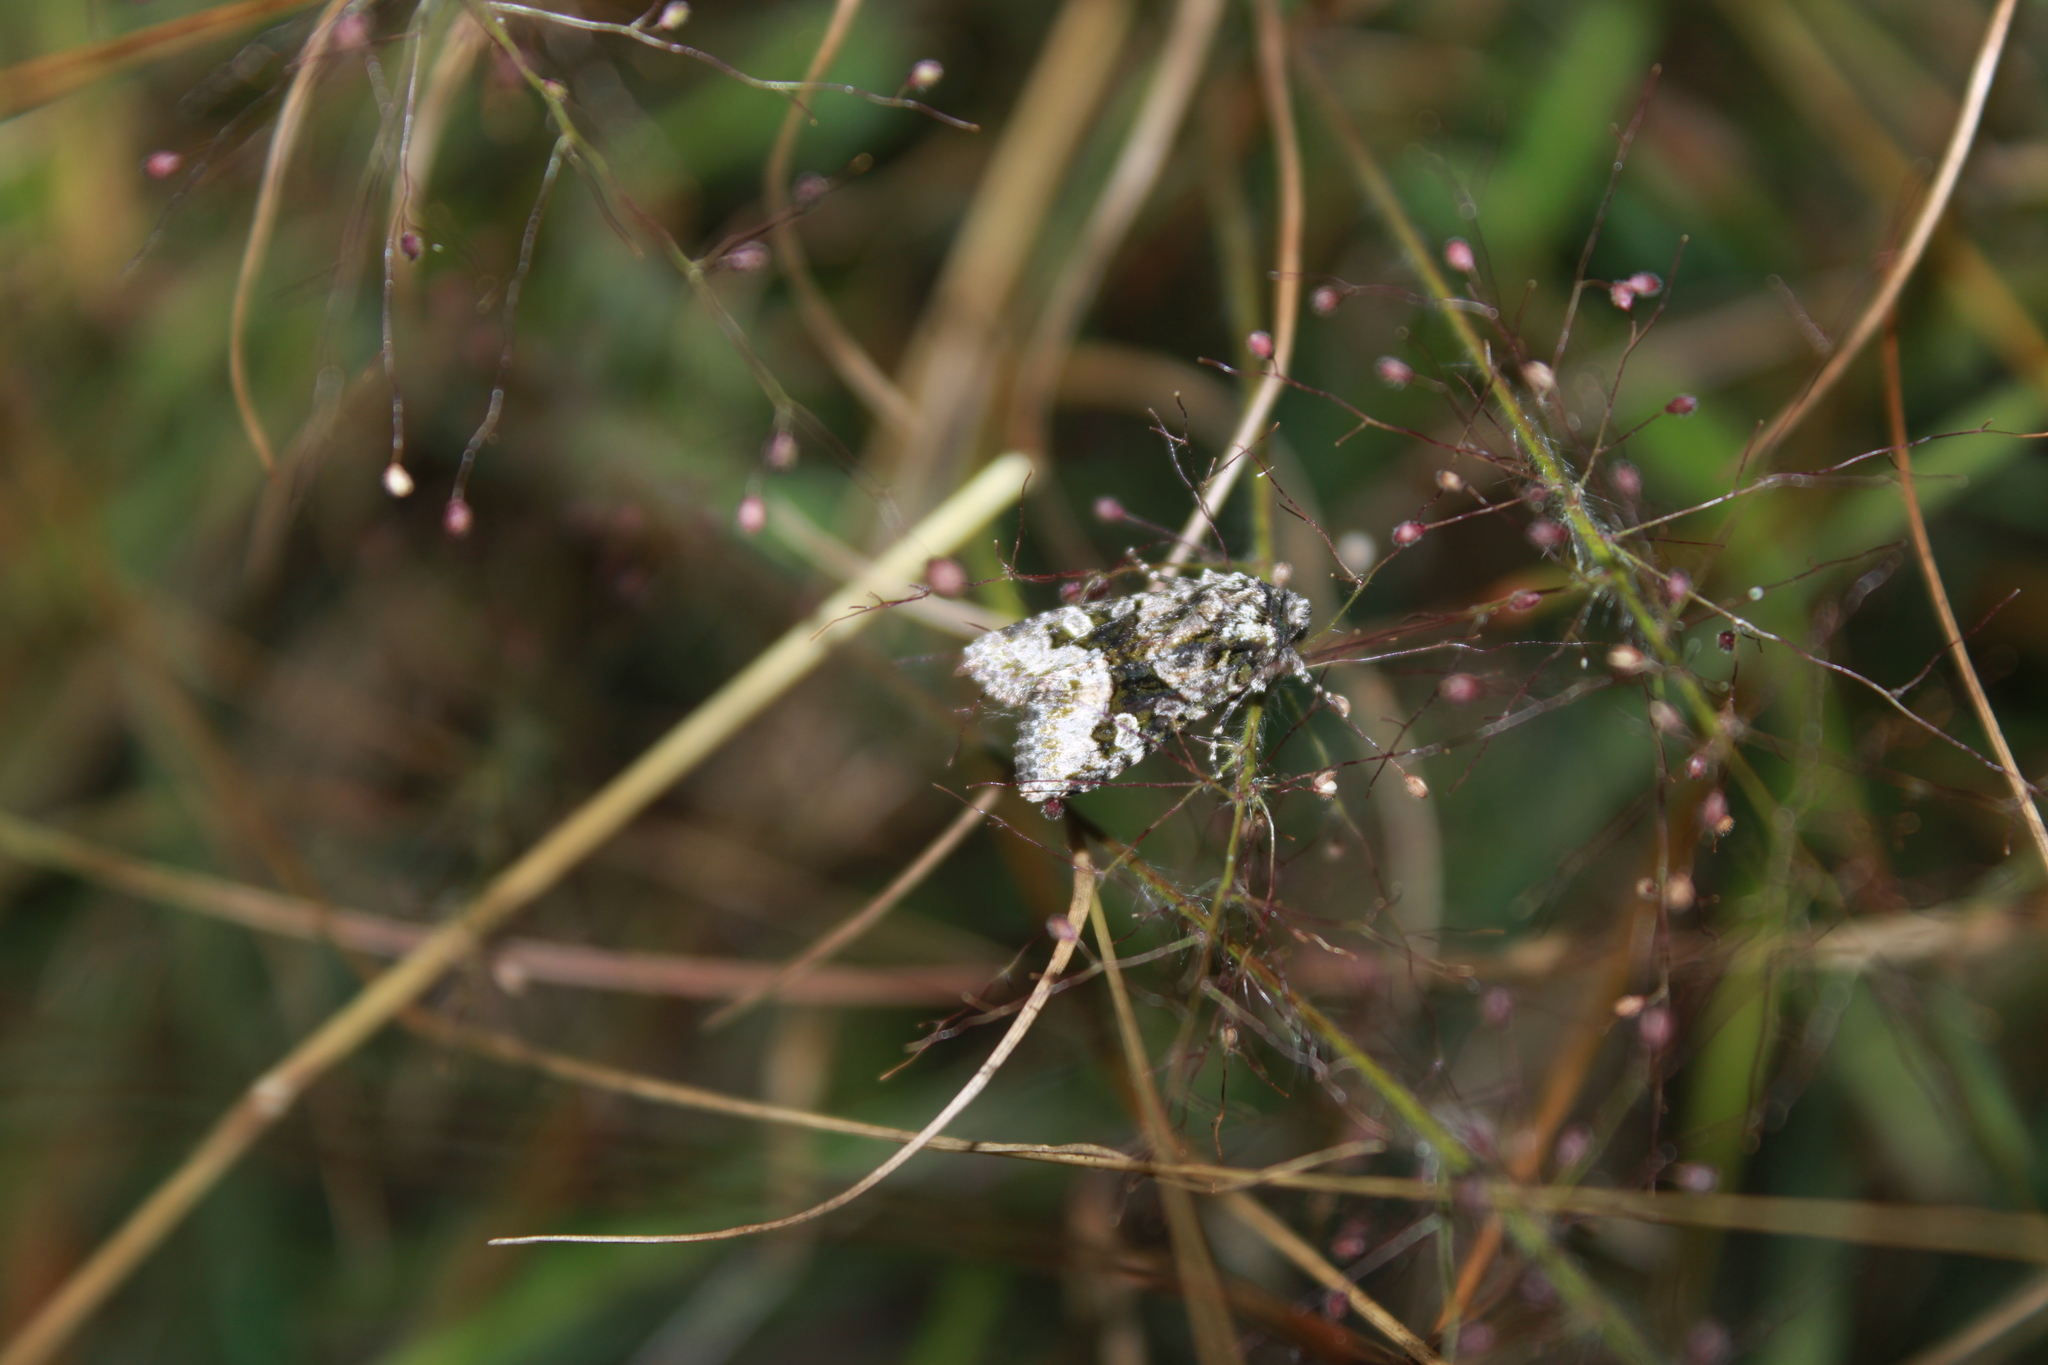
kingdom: Animalia
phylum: Arthropoda
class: Insecta
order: Lepidoptera
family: Noctuidae
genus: Lacinipolia
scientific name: Lacinipolia olivacea
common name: Olive arches moth
